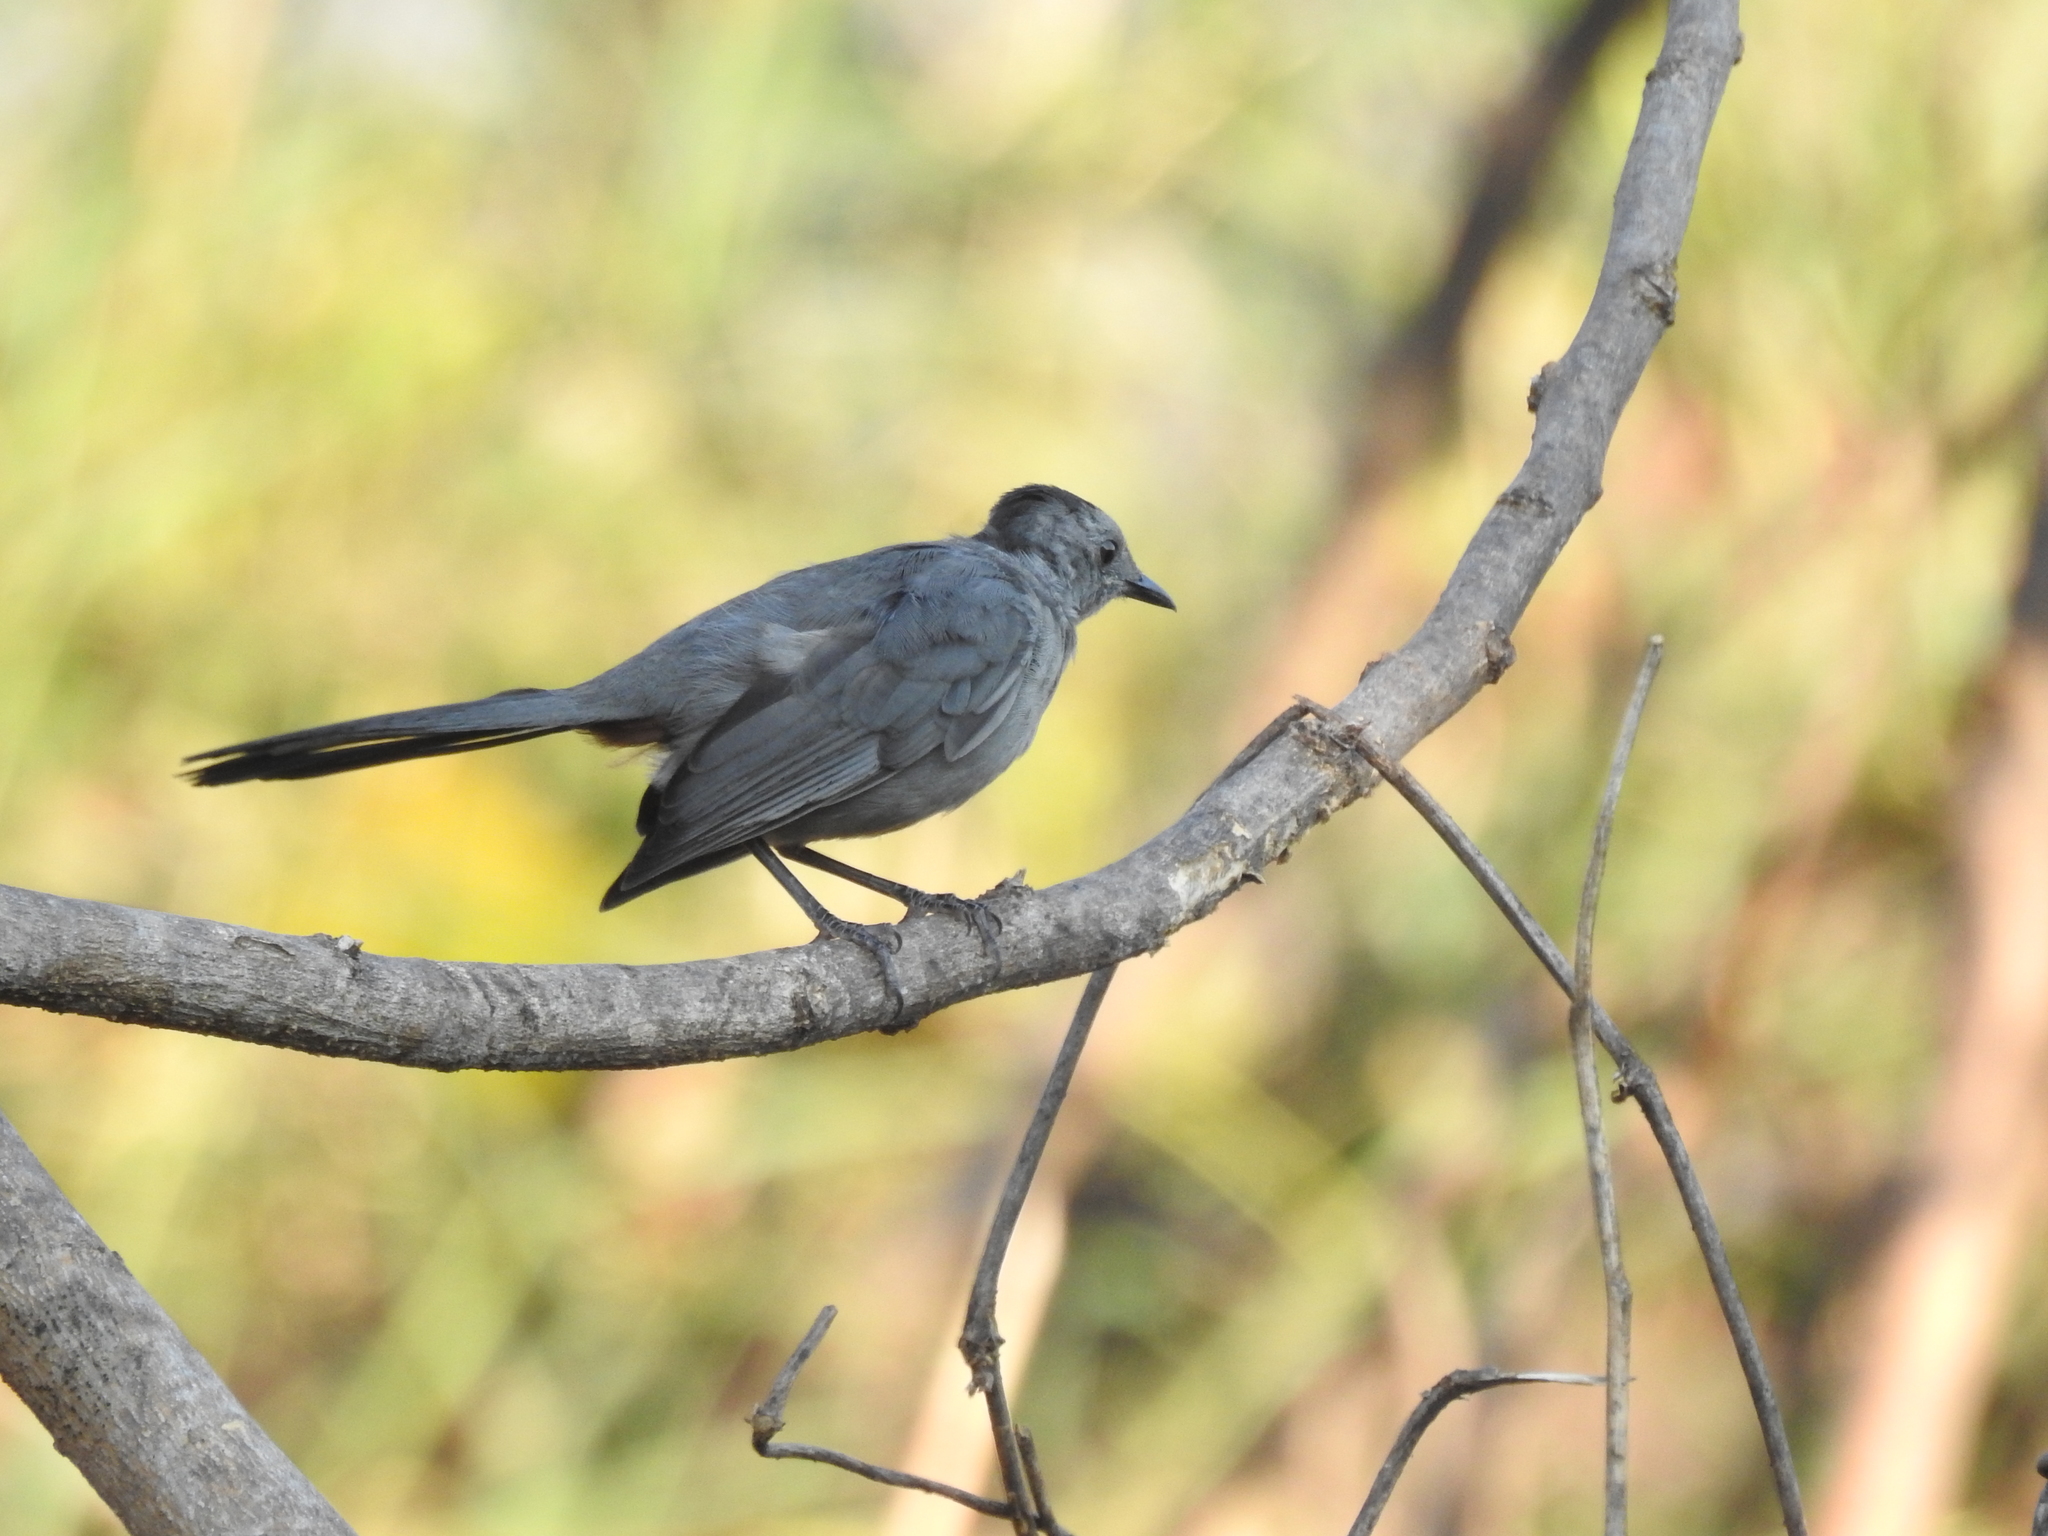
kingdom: Animalia
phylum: Chordata
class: Aves
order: Passeriformes
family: Mimidae
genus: Dumetella
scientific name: Dumetella carolinensis
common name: Gray catbird
